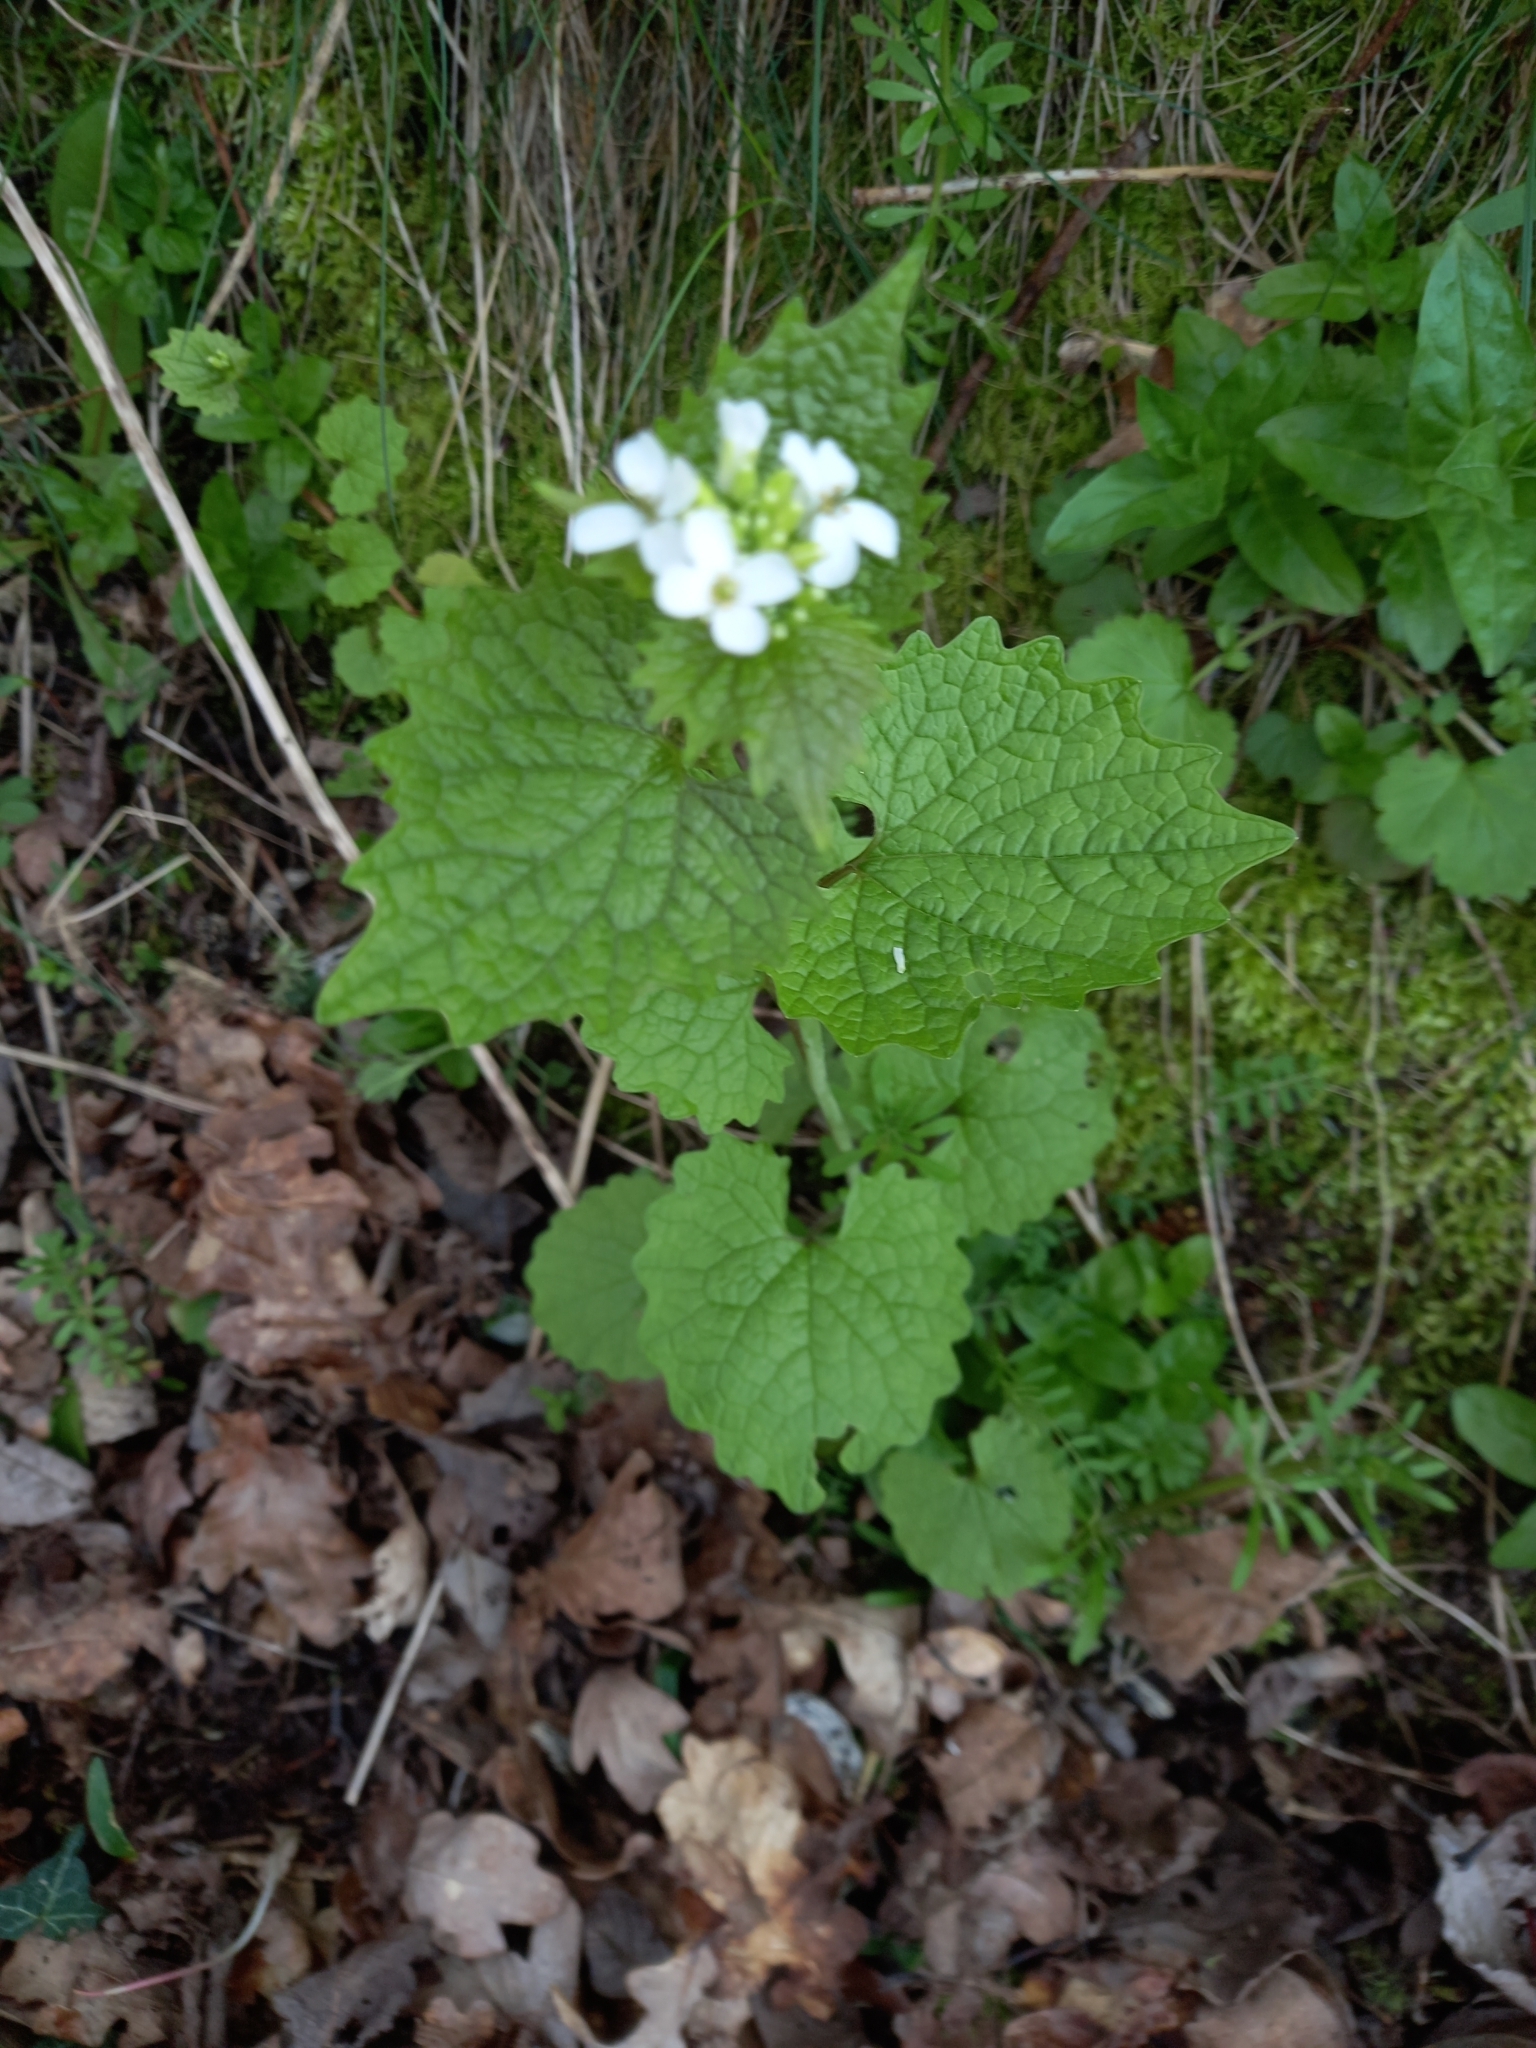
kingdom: Plantae
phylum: Tracheophyta
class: Magnoliopsida
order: Brassicales
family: Brassicaceae
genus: Alliaria
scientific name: Alliaria petiolata
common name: Garlic mustard
